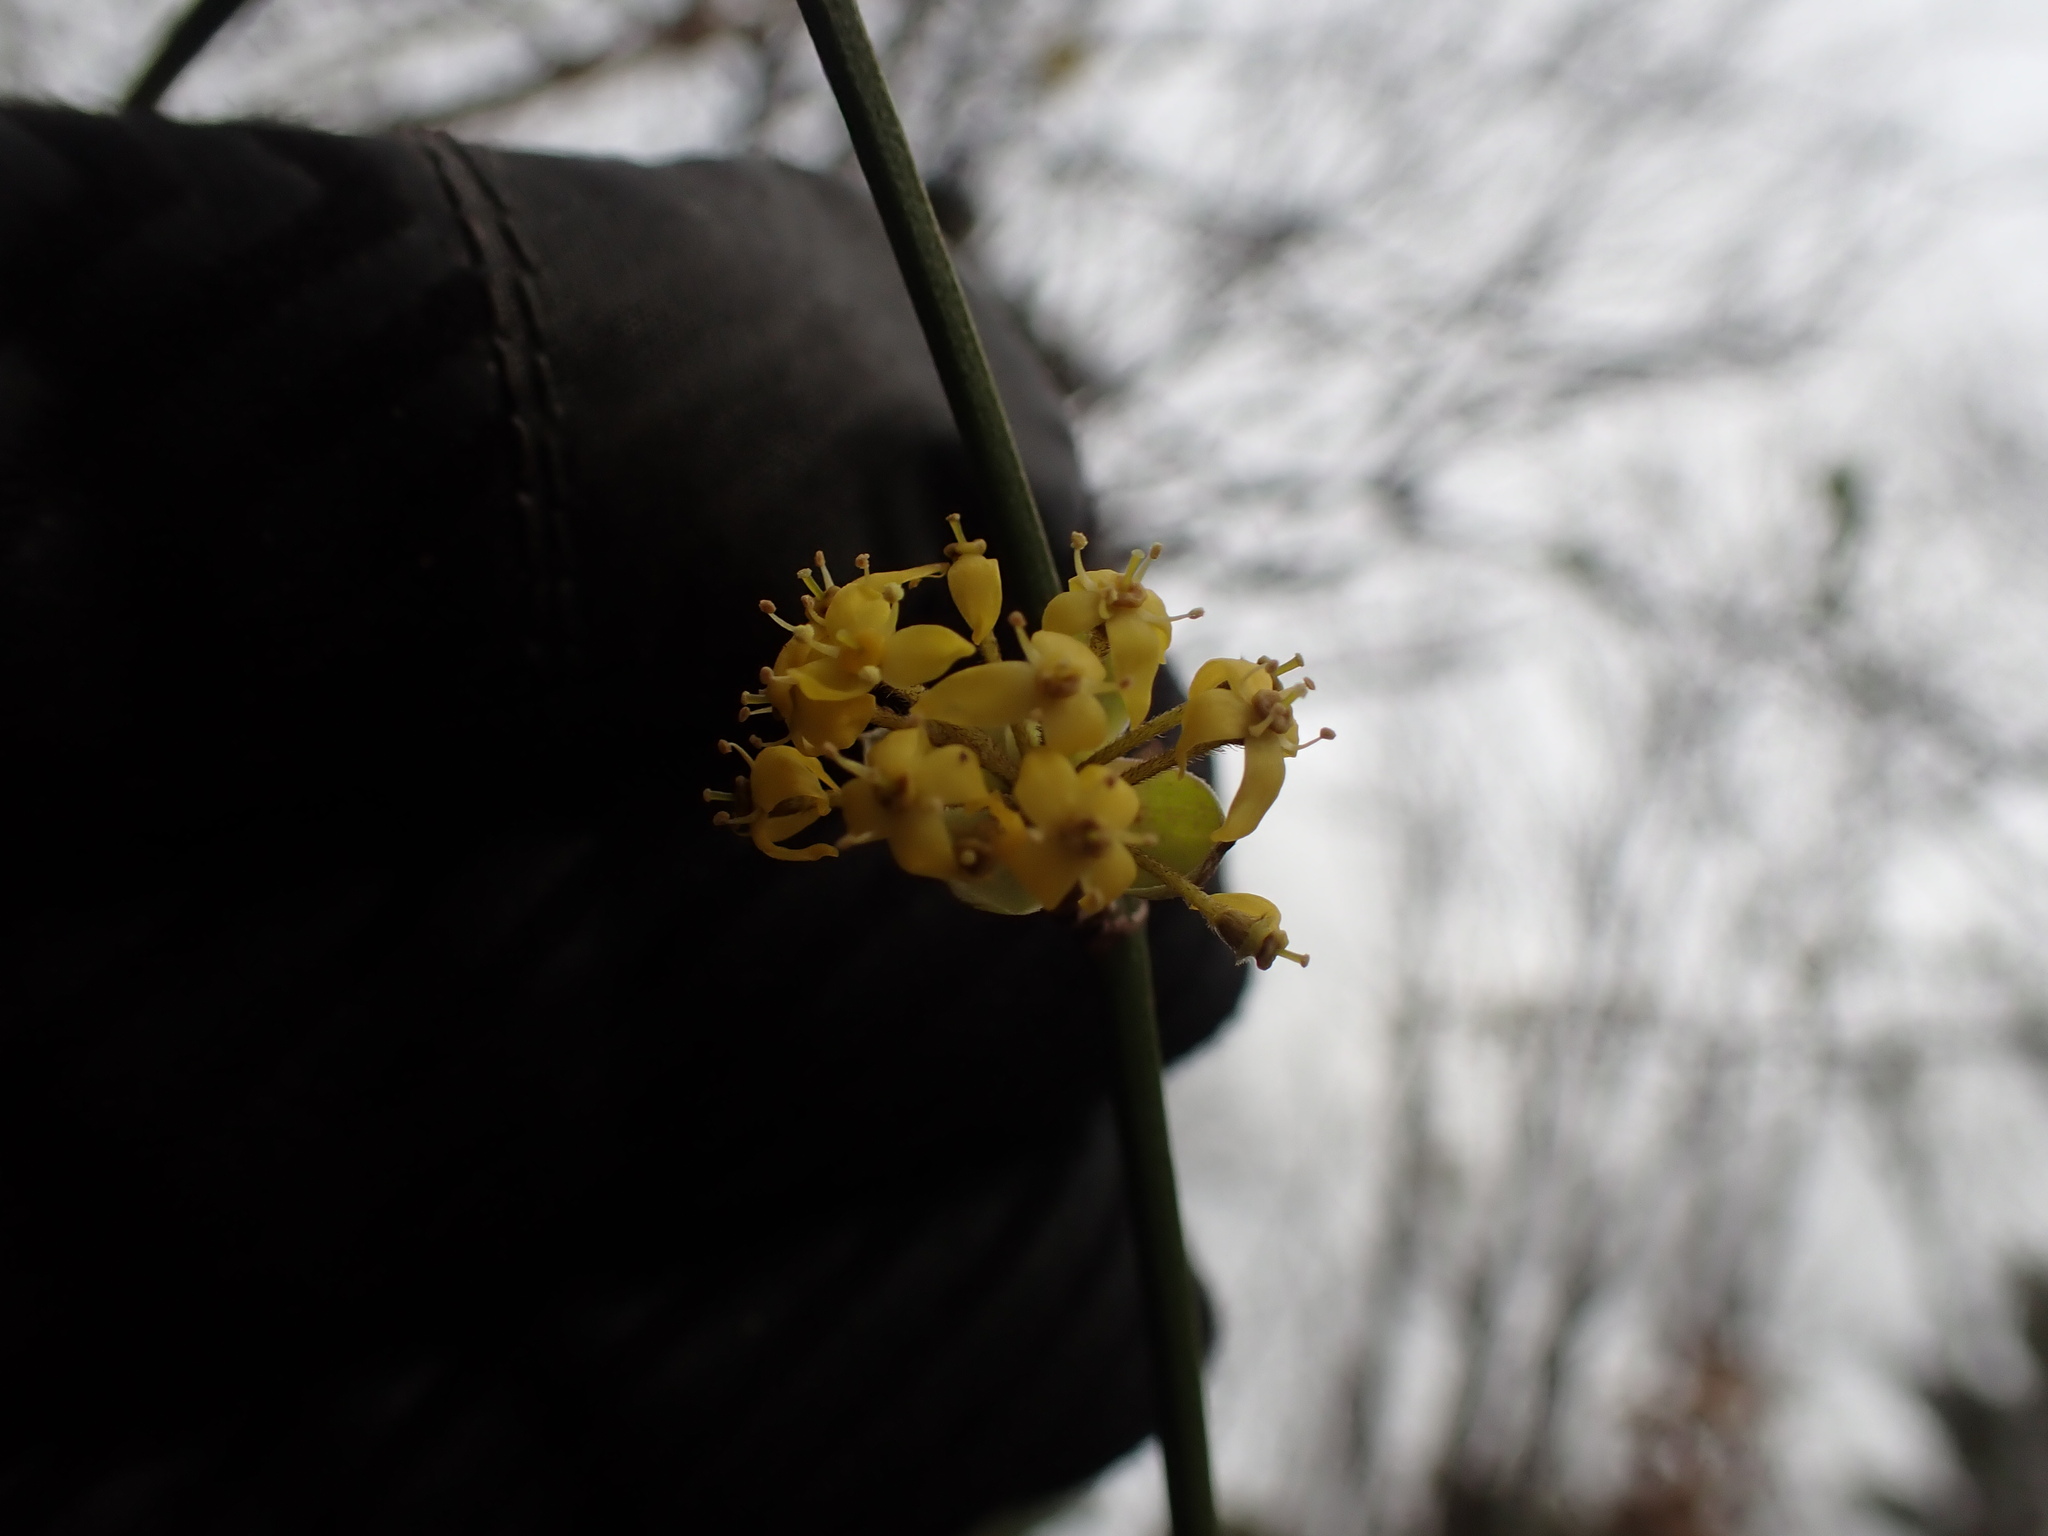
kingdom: Plantae
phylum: Tracheophyta
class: Magnoliopsida
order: Cornales
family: Cornaceae
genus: Cornus
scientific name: Cornus mas
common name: Cornelian-cherry
